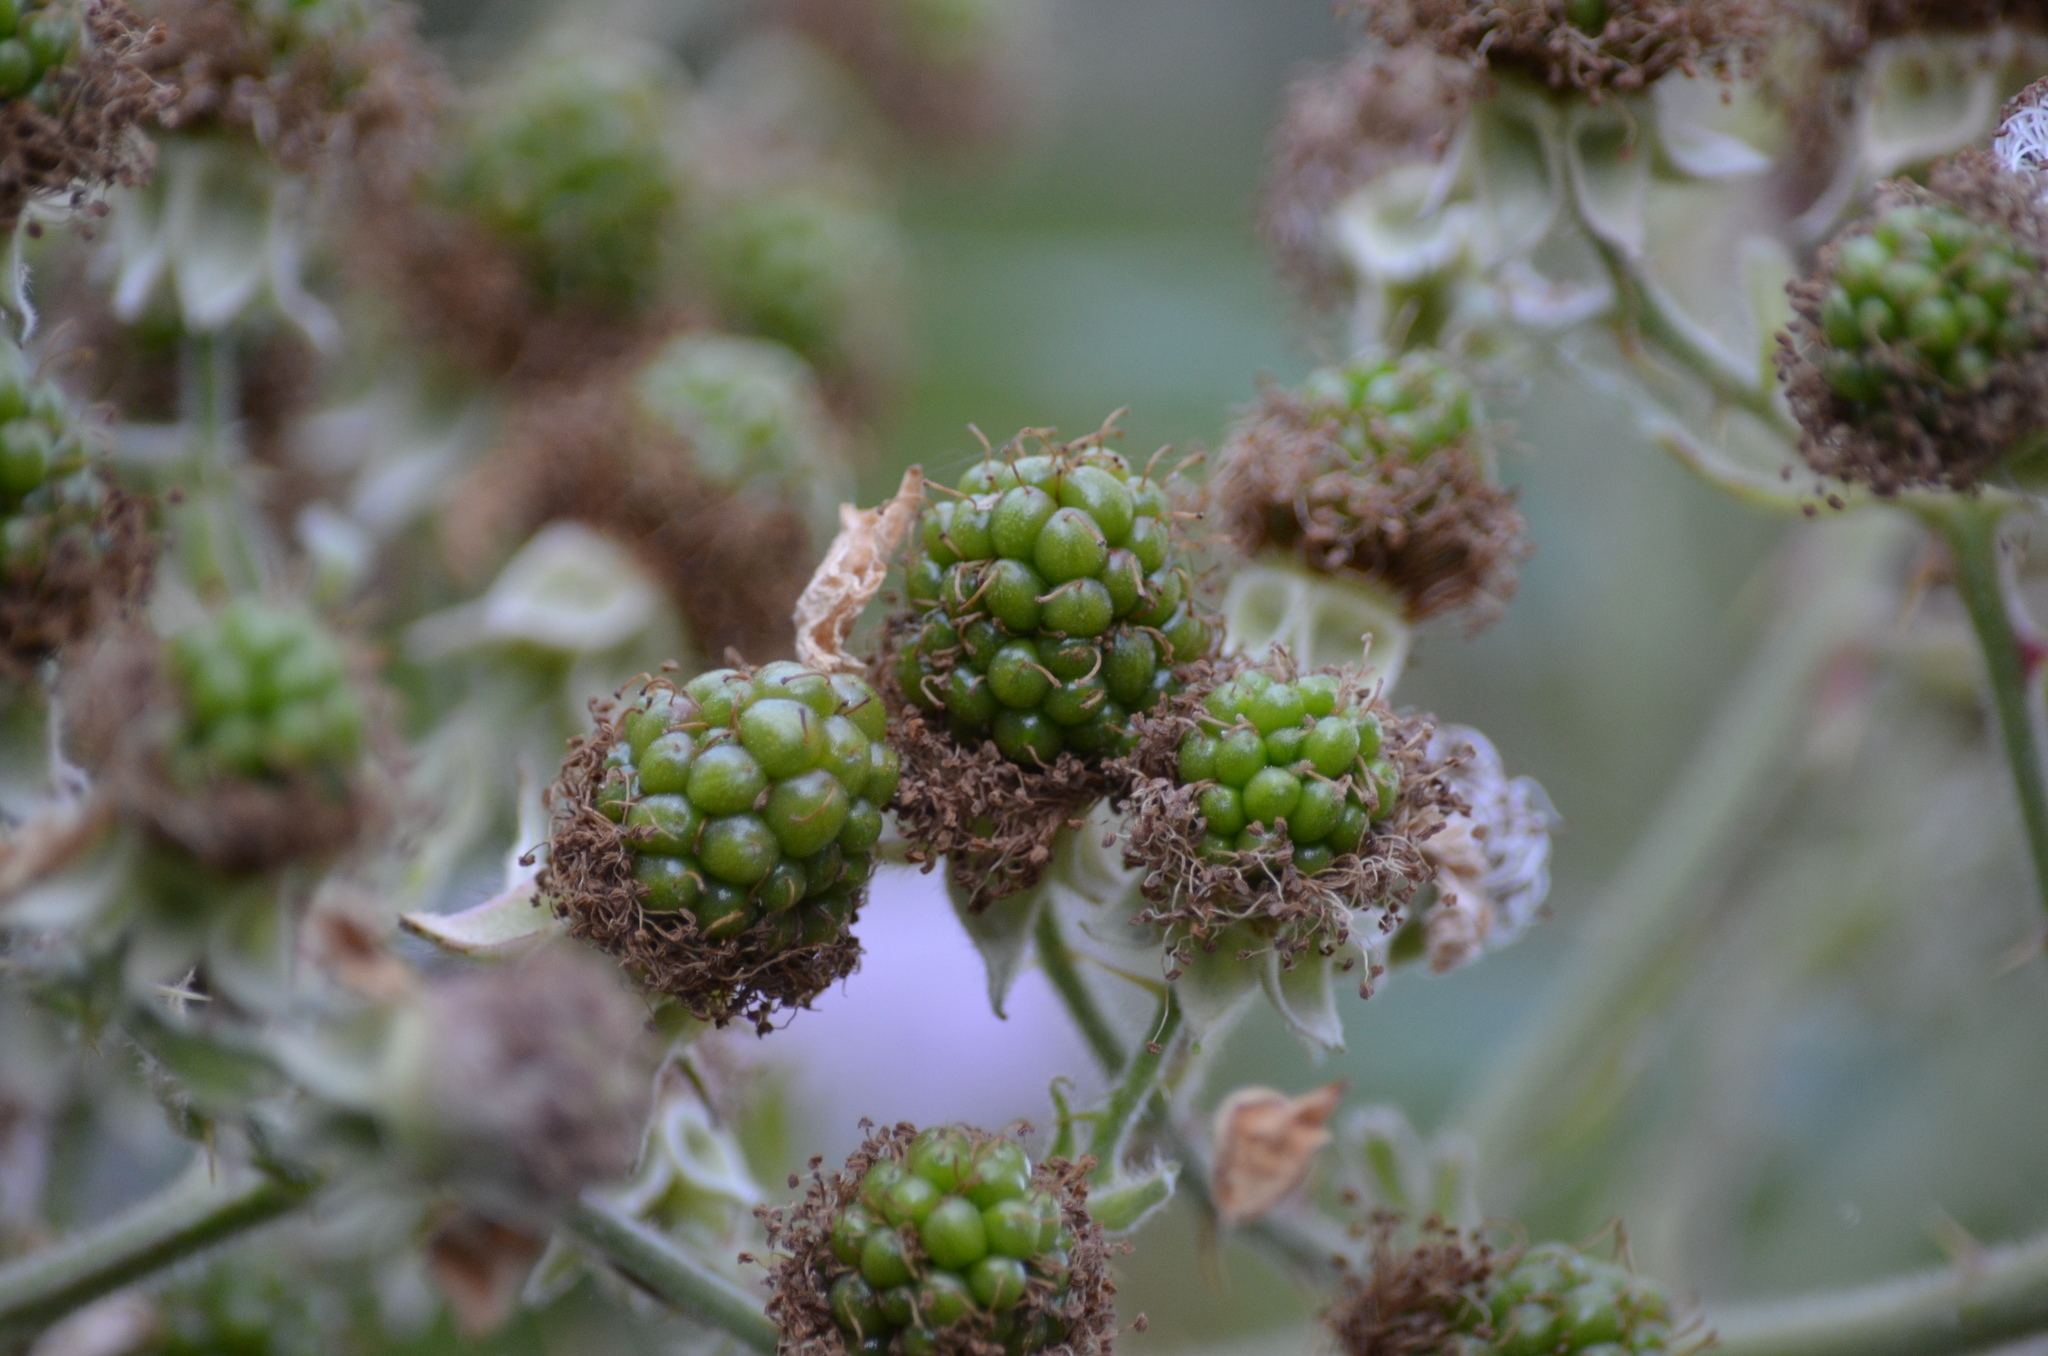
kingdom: Plantae
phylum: Tracheophyta
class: Magnoliopsida
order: Rosales
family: Rosaceae
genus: Rubus
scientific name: Rubus armeniacus
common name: Himalayan blackberry
